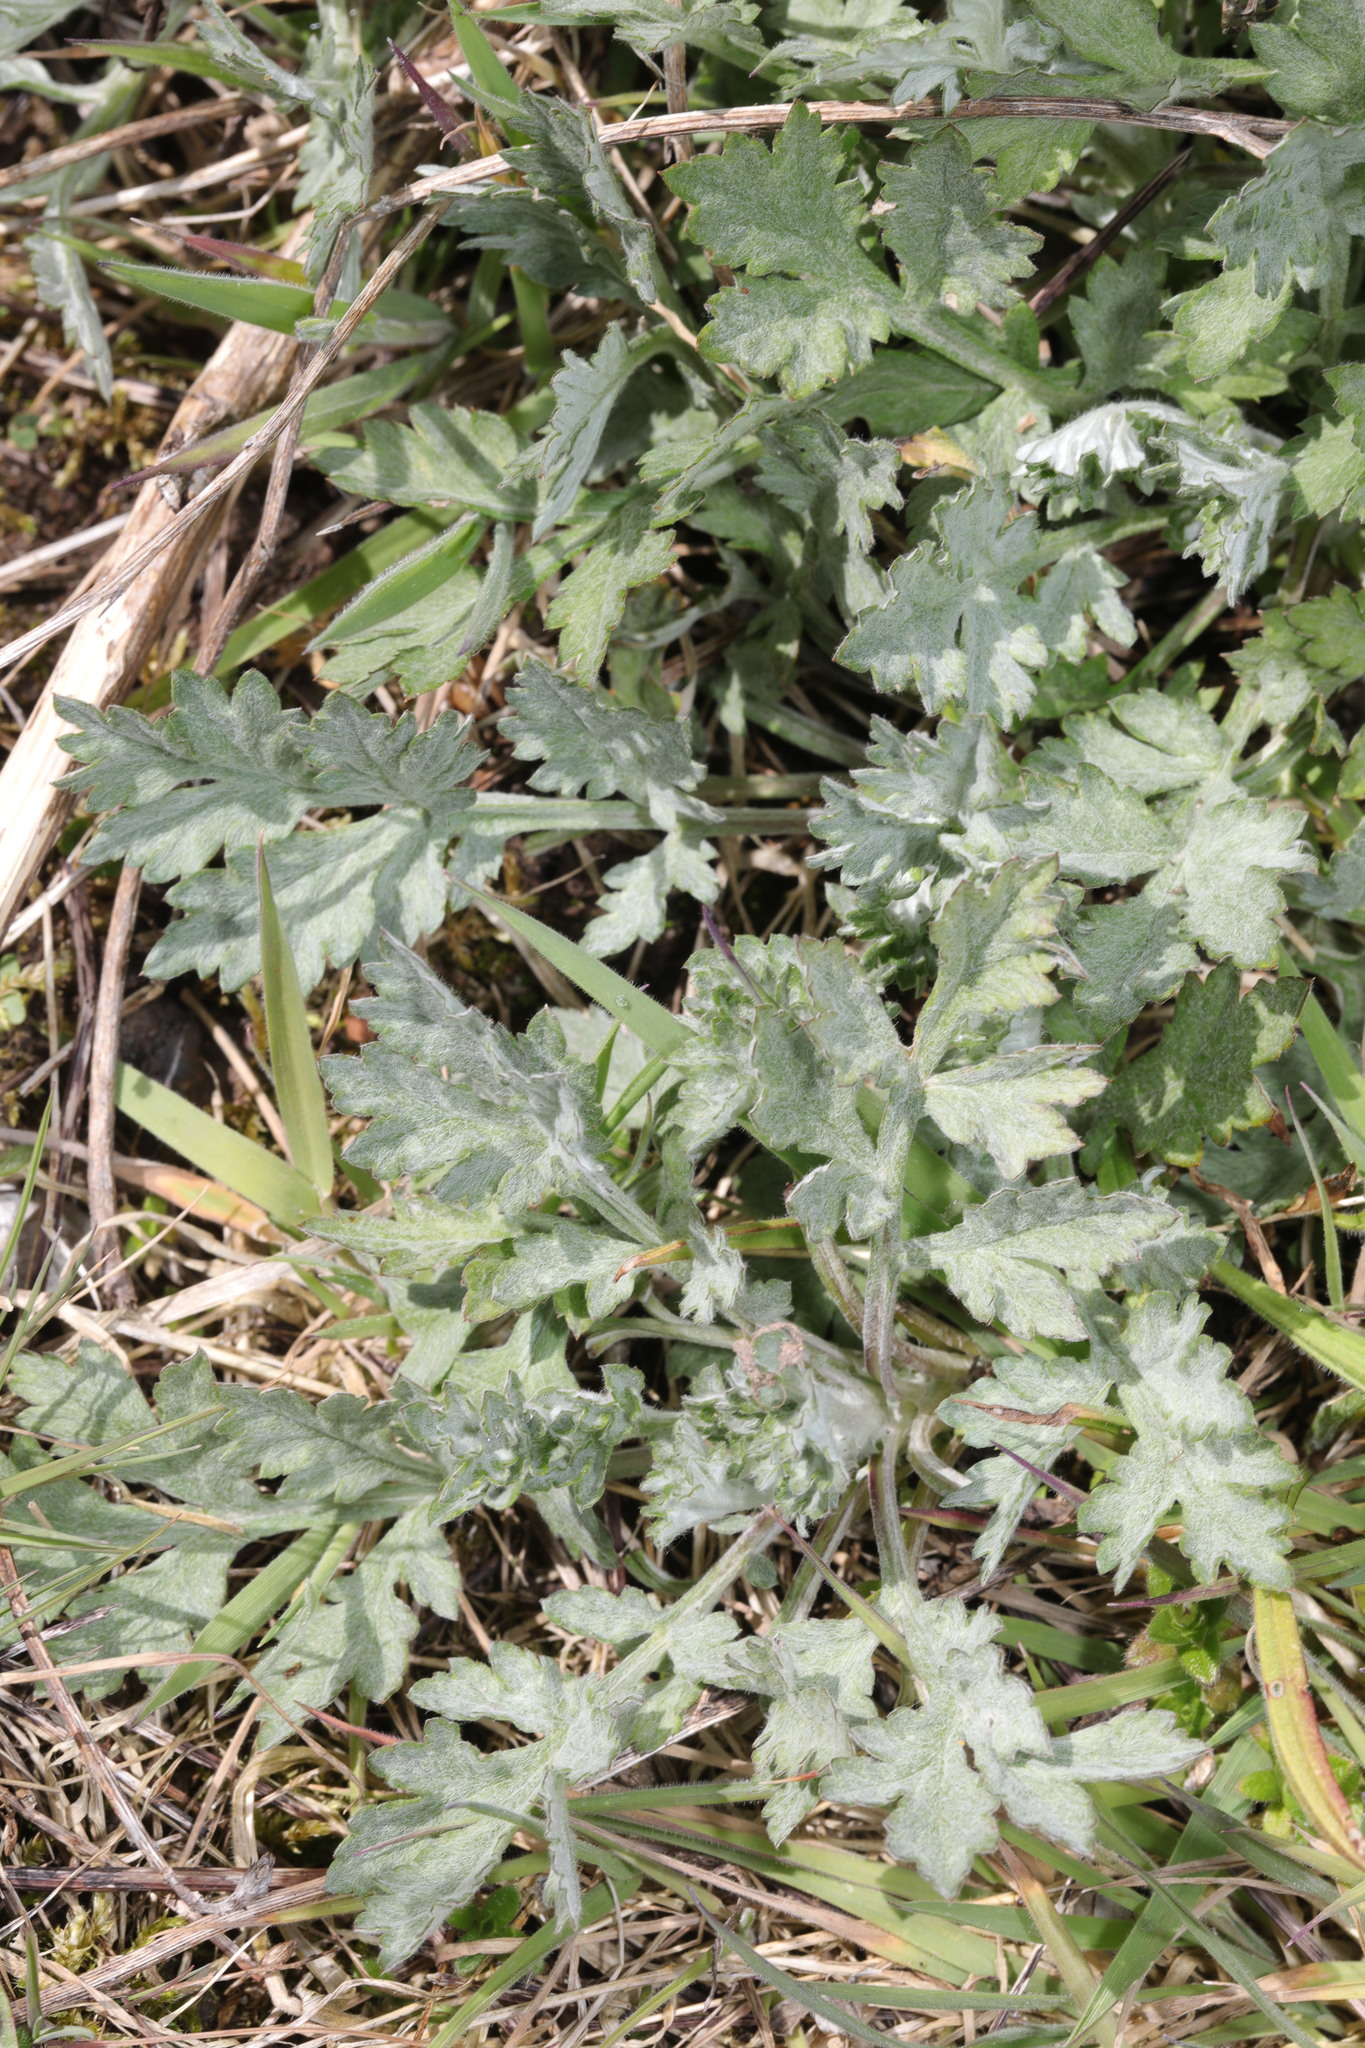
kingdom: Plantae
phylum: Tracheophyta
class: Magnoliopsida
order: Asterales
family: Asteraceae
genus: Artemisia
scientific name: Artemisia vulgaris
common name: Mugwort
